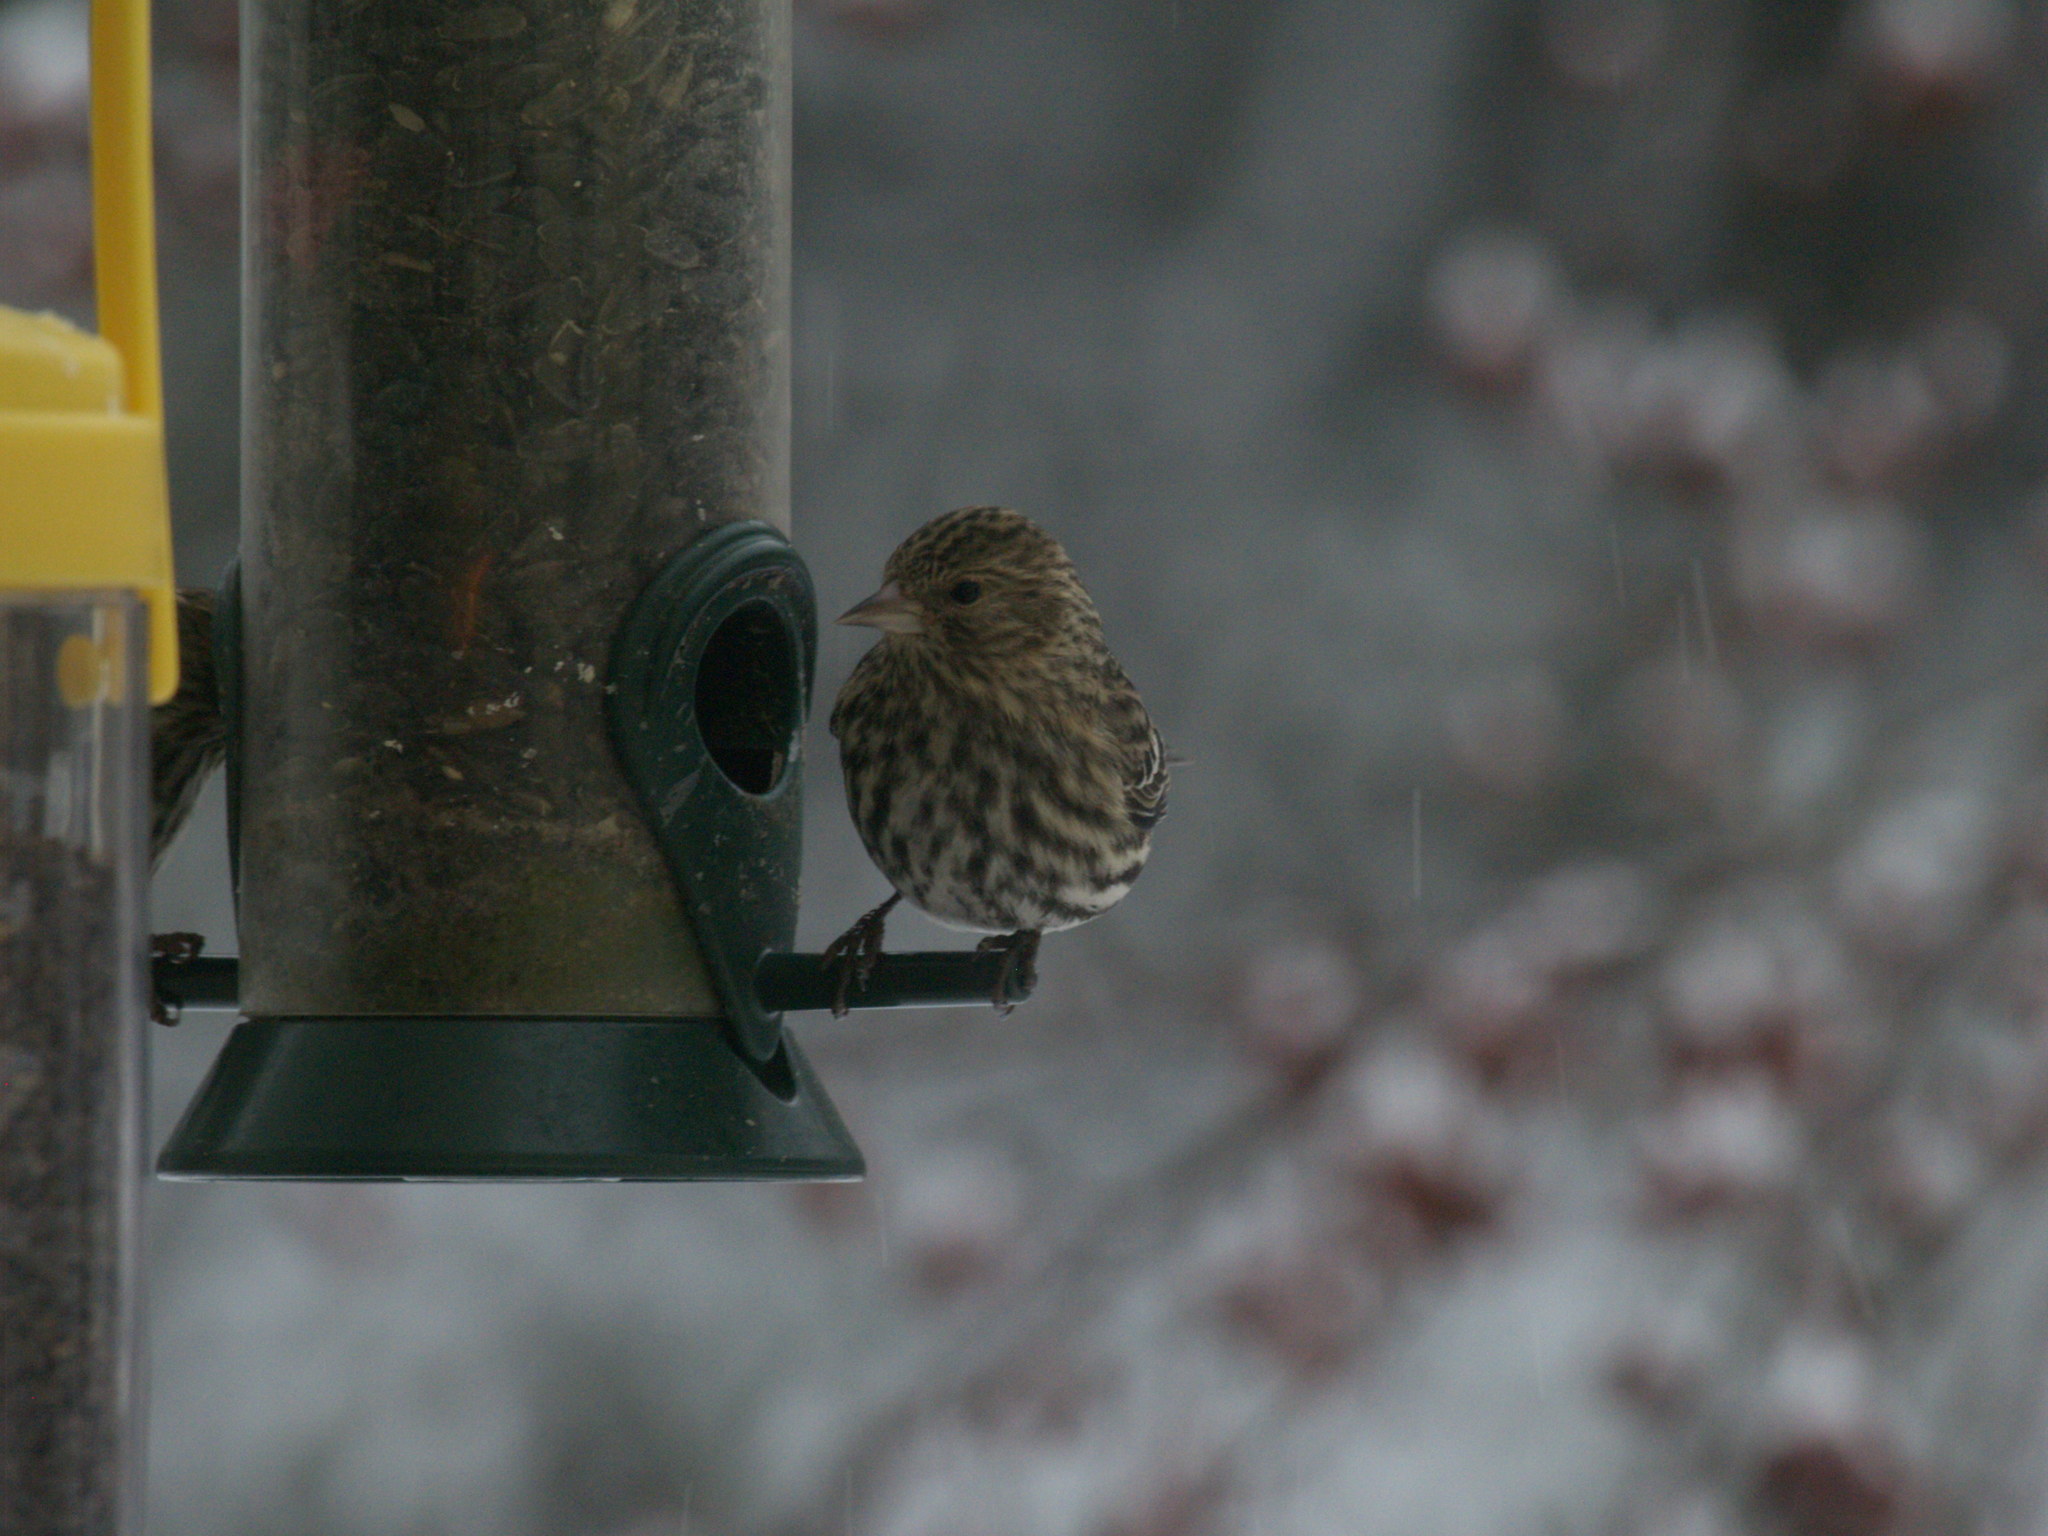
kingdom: Animalia
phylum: Chordata
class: Aves
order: Passeriformes
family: Fringillidae
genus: Spinus
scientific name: Spinus pinus
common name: Pine siskin
